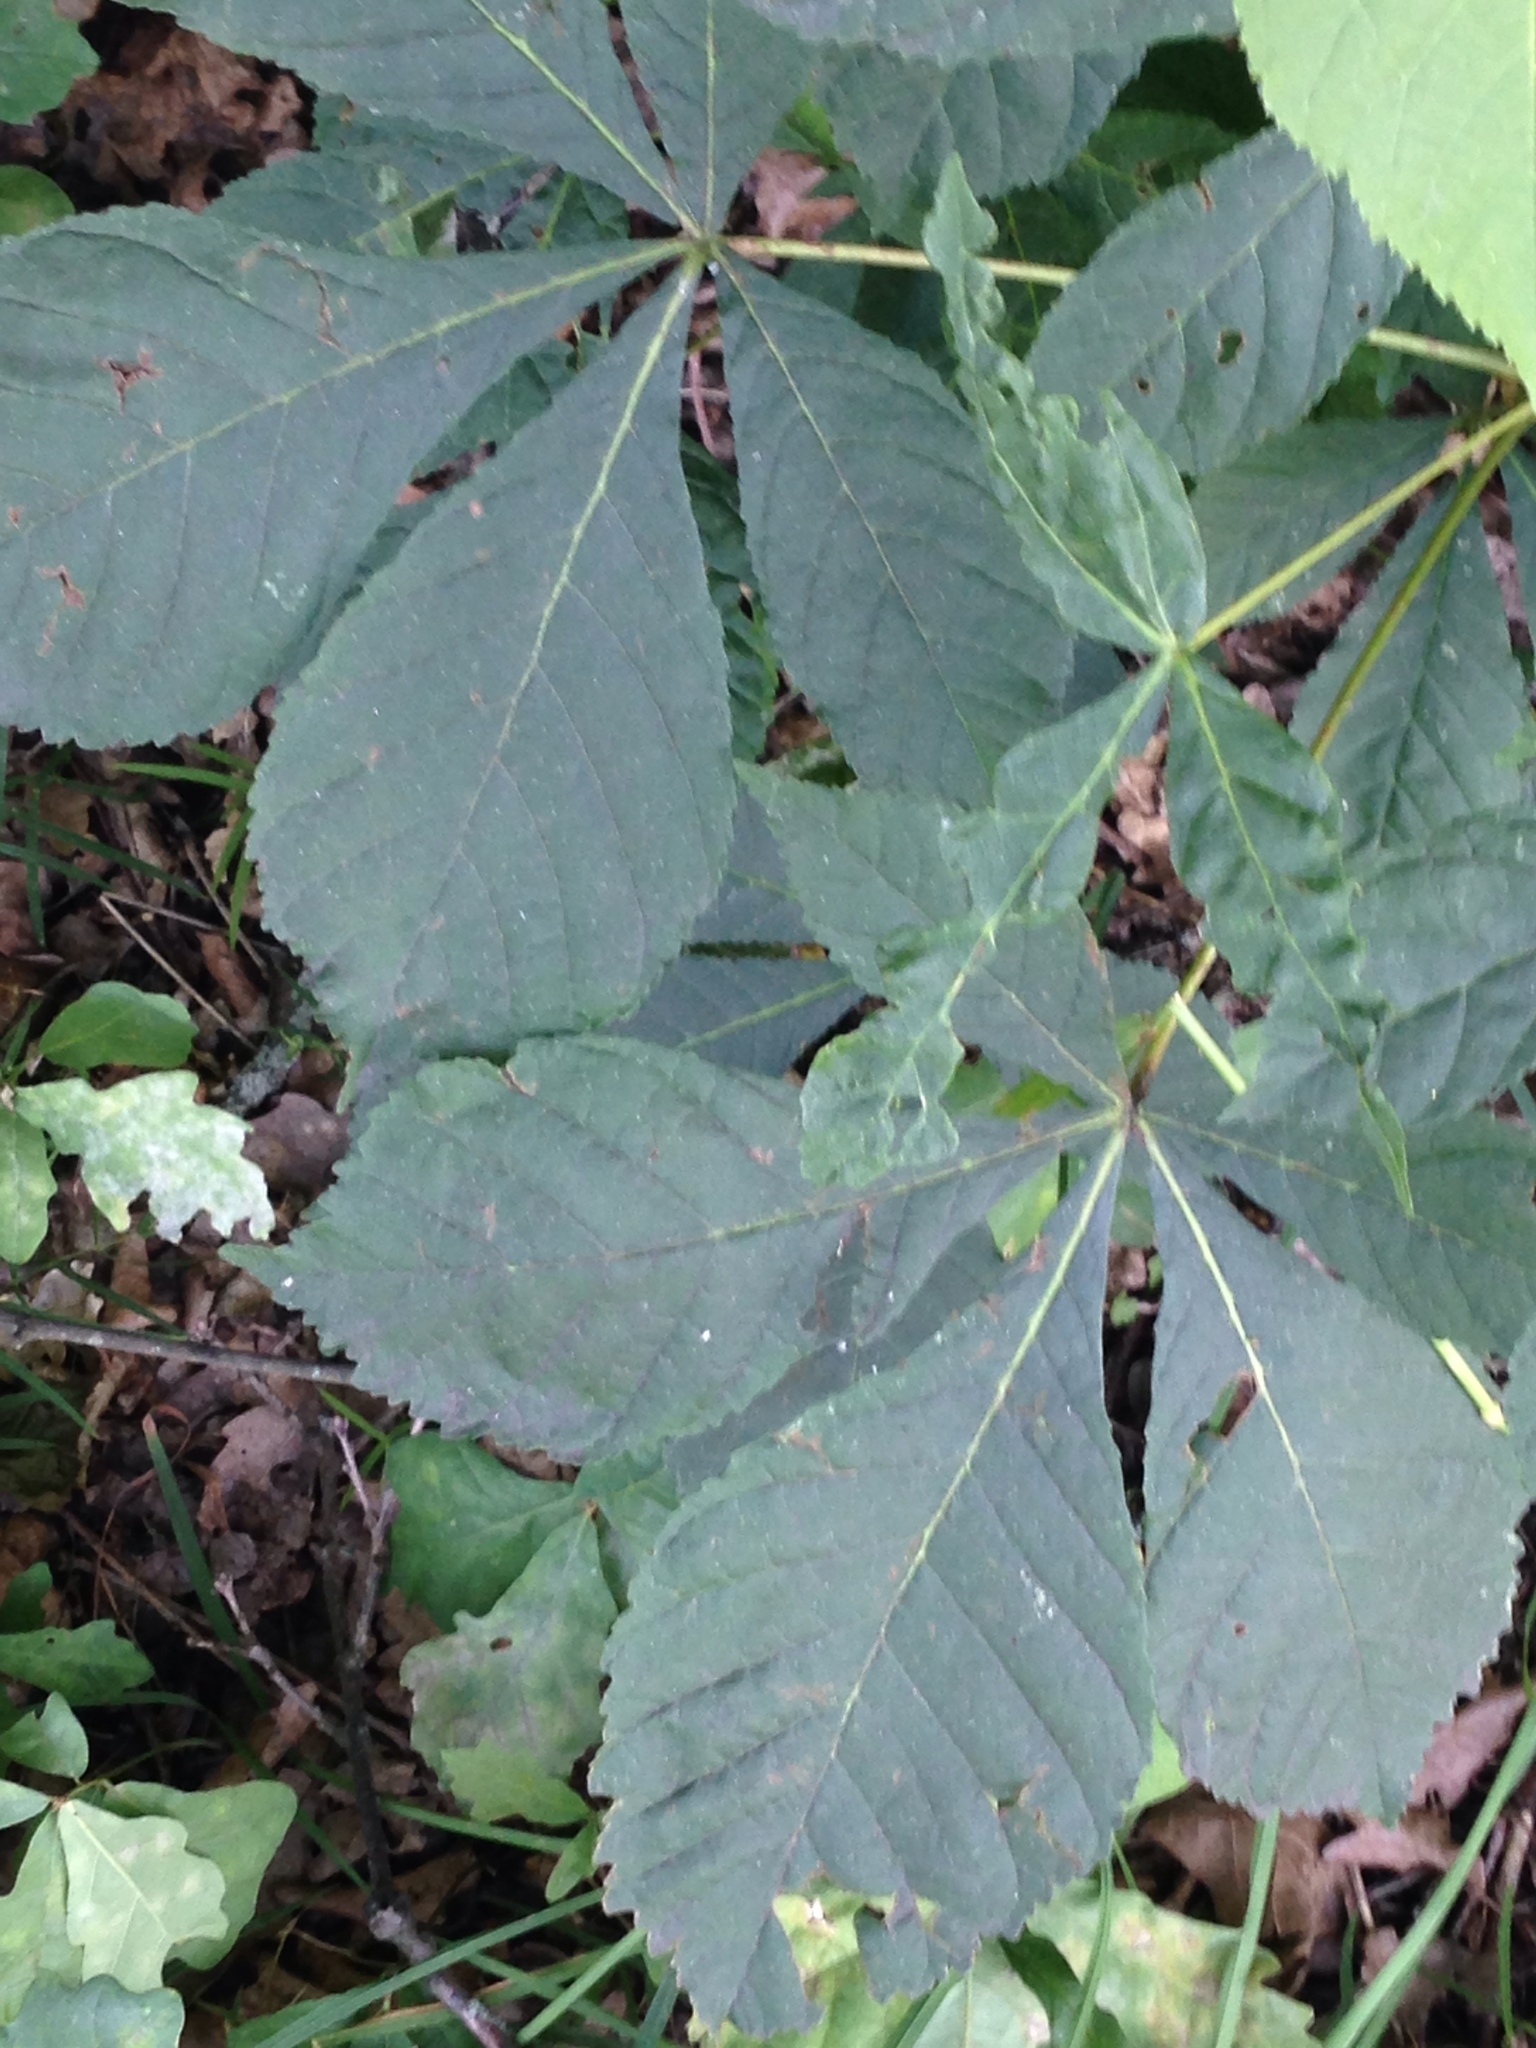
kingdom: Plantae
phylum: Tracheophyta
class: Magnoliopsida
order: Sapindales
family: Sapindaceae
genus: Aesculus
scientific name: Aesculus hippocastanum
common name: Horse-chestnut
